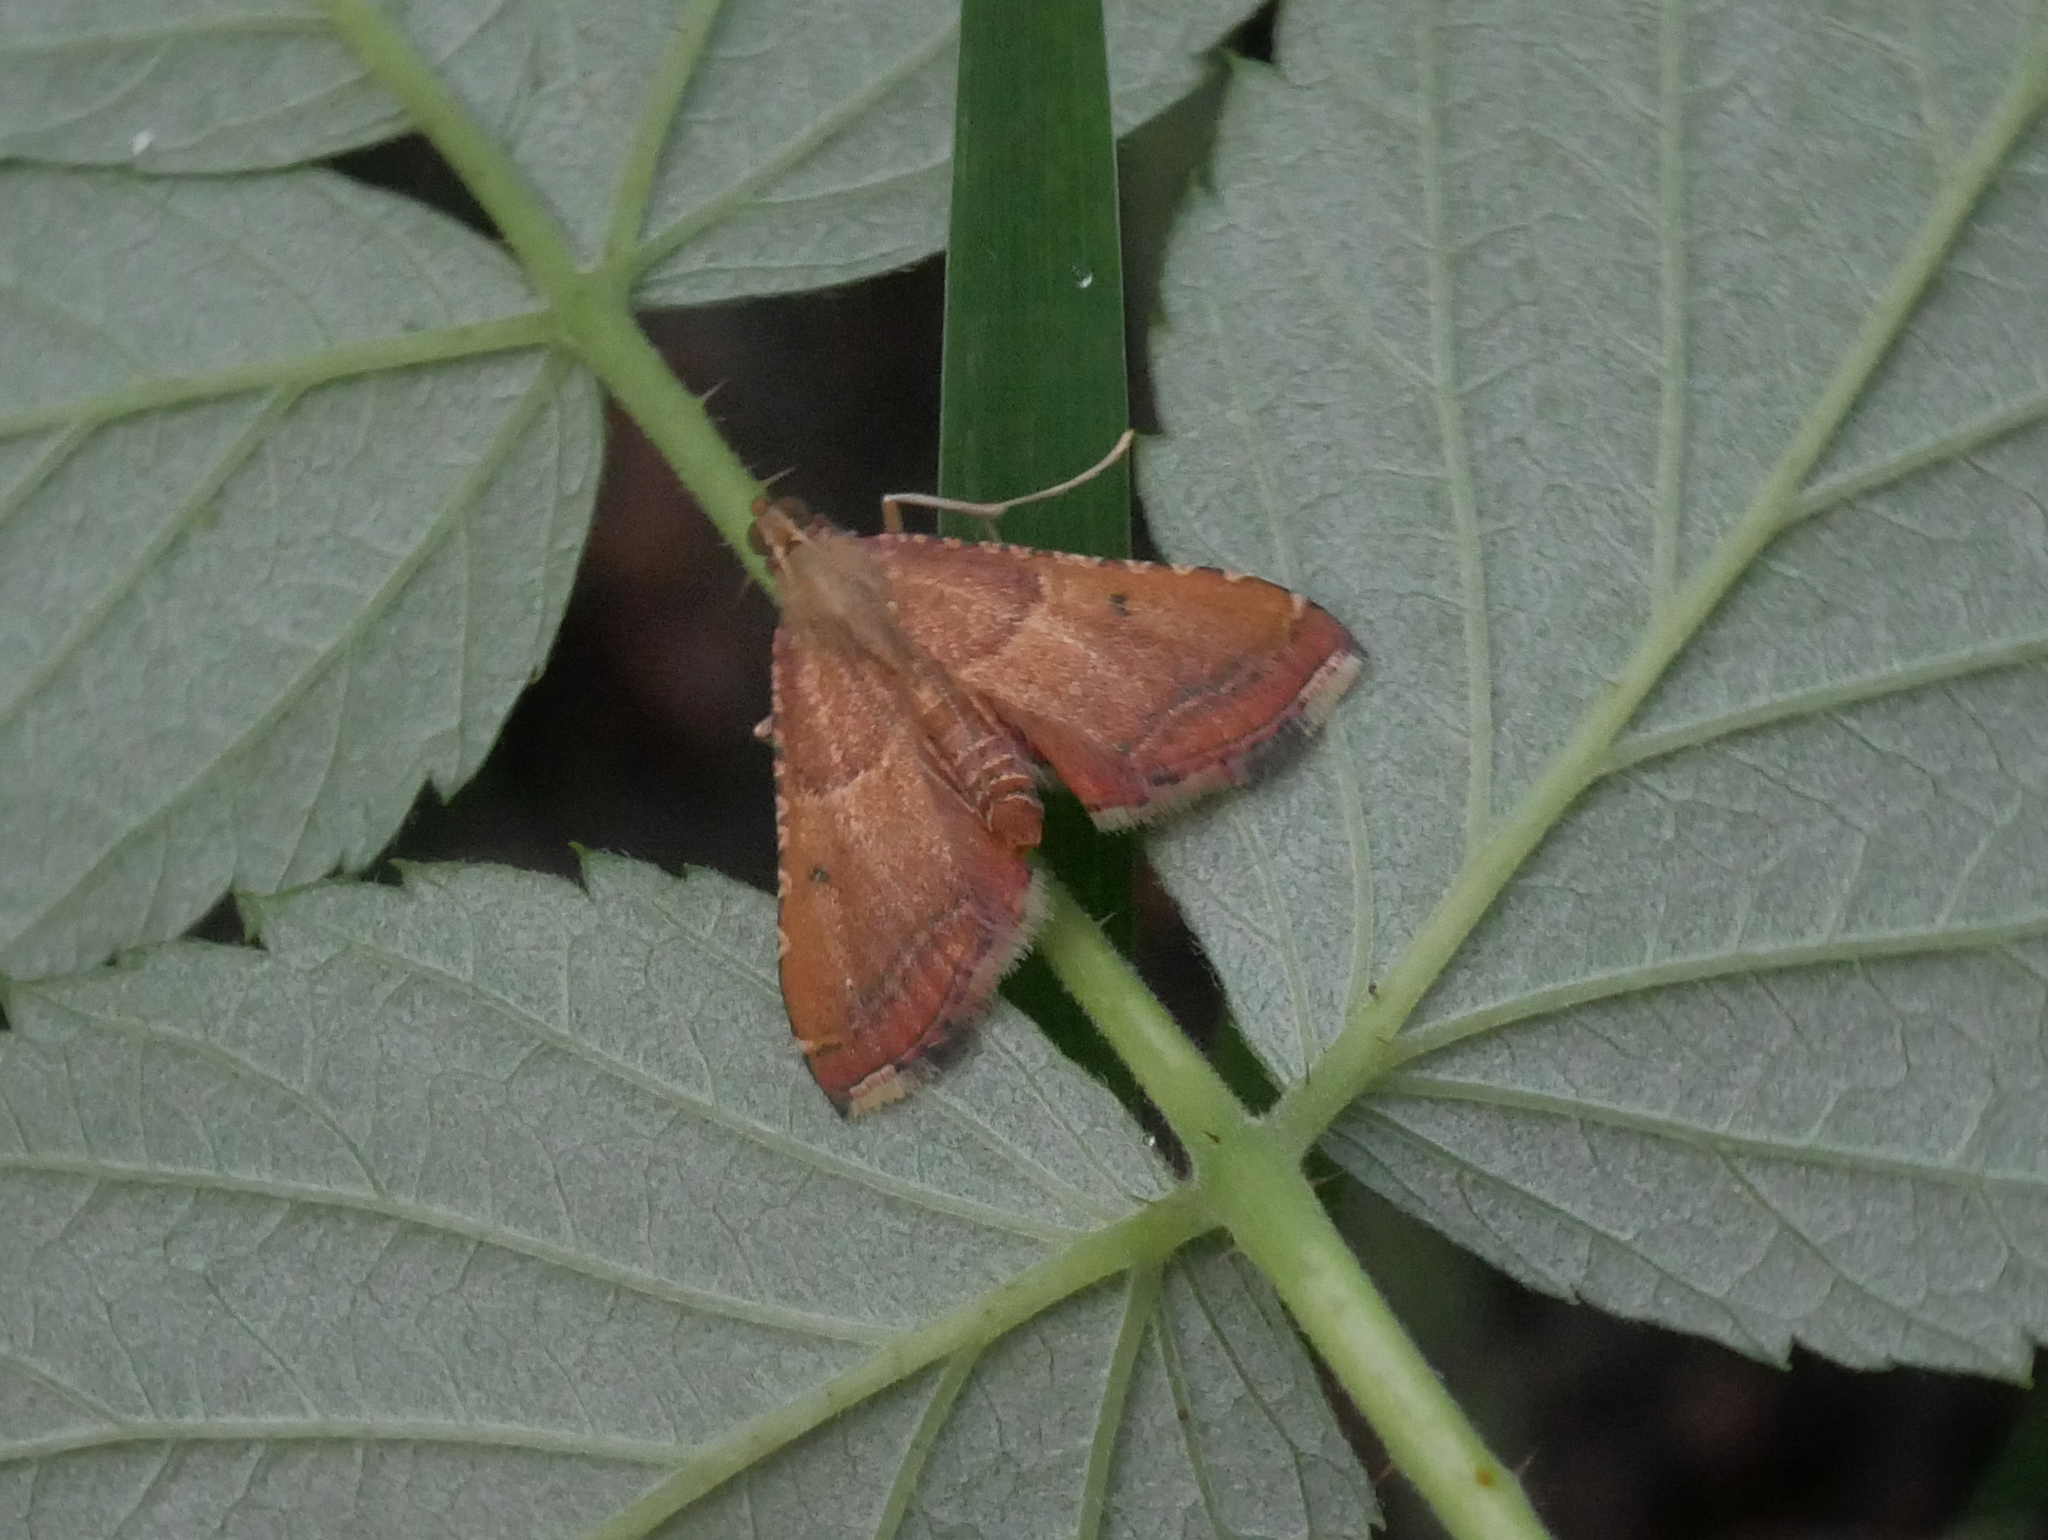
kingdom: Animalia
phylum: Arthropoda
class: Insecta
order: Lepidoptera
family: Pyralidae
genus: Endotricha
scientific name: Endotricha flammealis
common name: Rosy tabby
